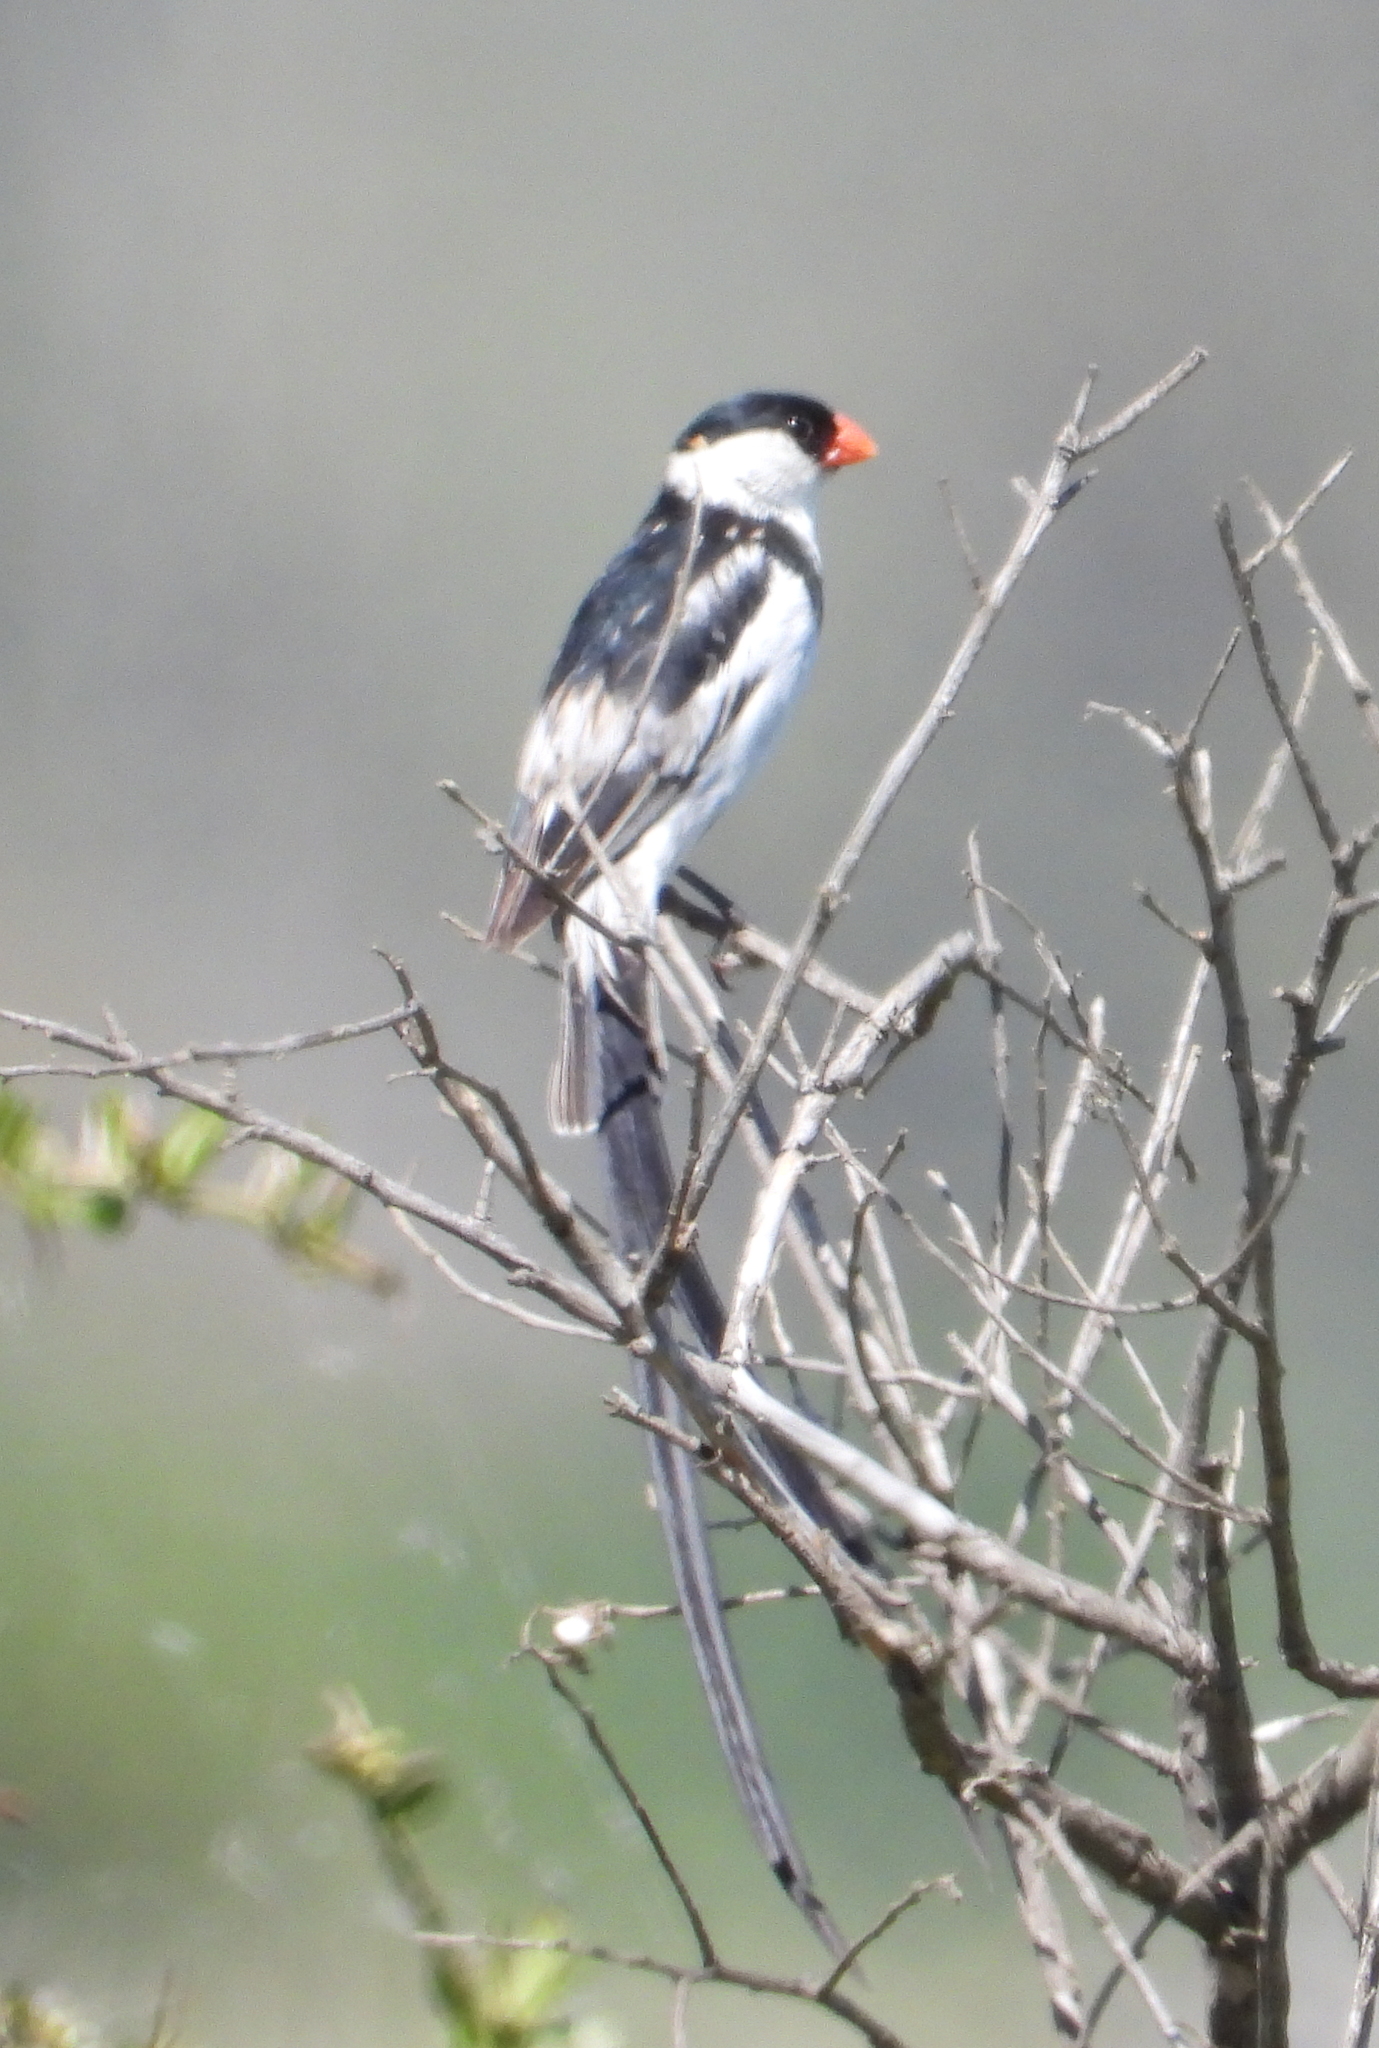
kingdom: Animalia
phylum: Chordata
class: Aves
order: Passeriformes
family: Viduidae
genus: Vidua
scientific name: Vidua macroura
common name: Pin-tailed whydah
